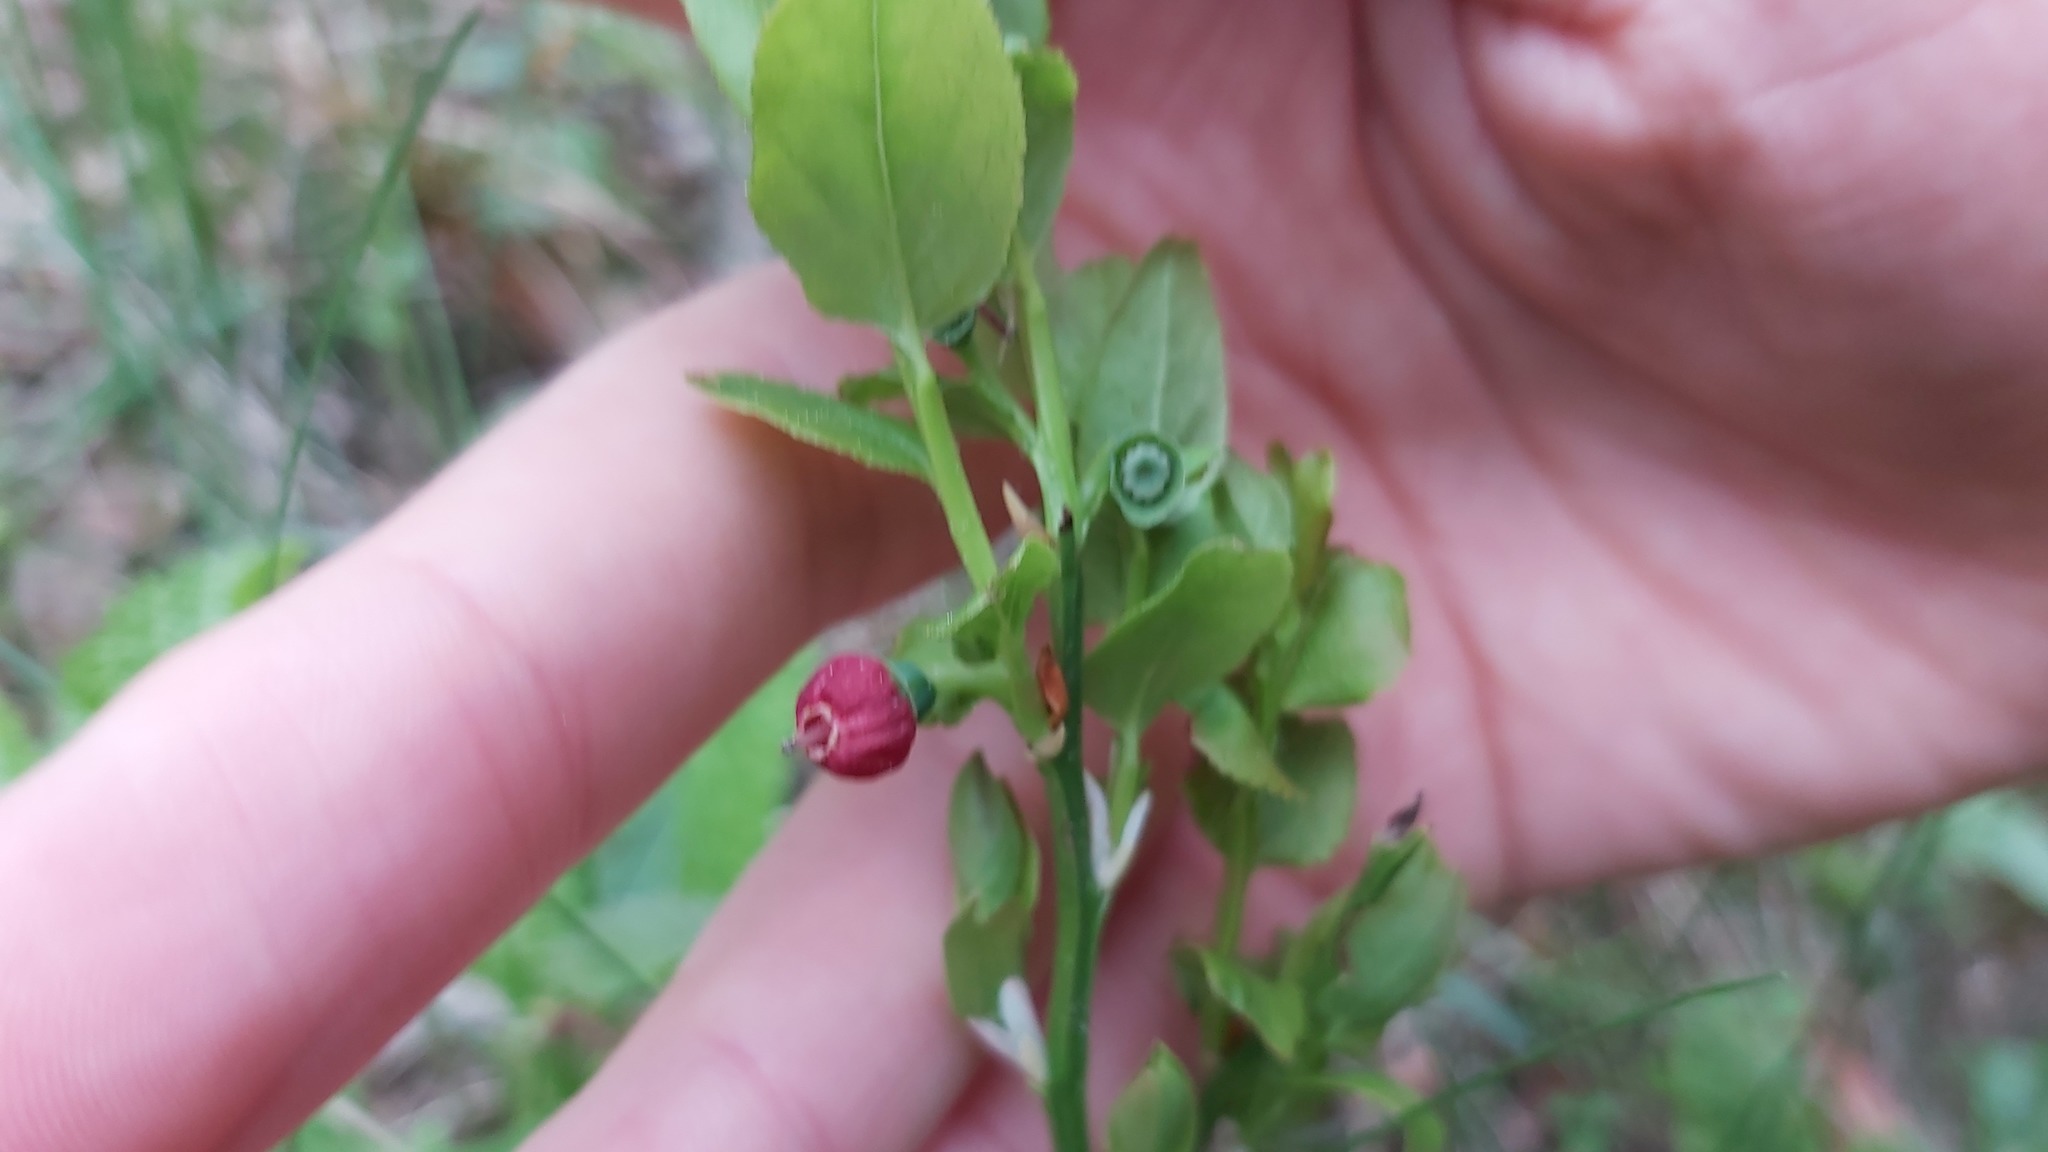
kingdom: Plantae
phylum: Tracheophyta
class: Magnoliopsida
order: Ericales
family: Ericaceae
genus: Vaccinium
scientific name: Vaccinium myrtillus
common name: Bilberry
